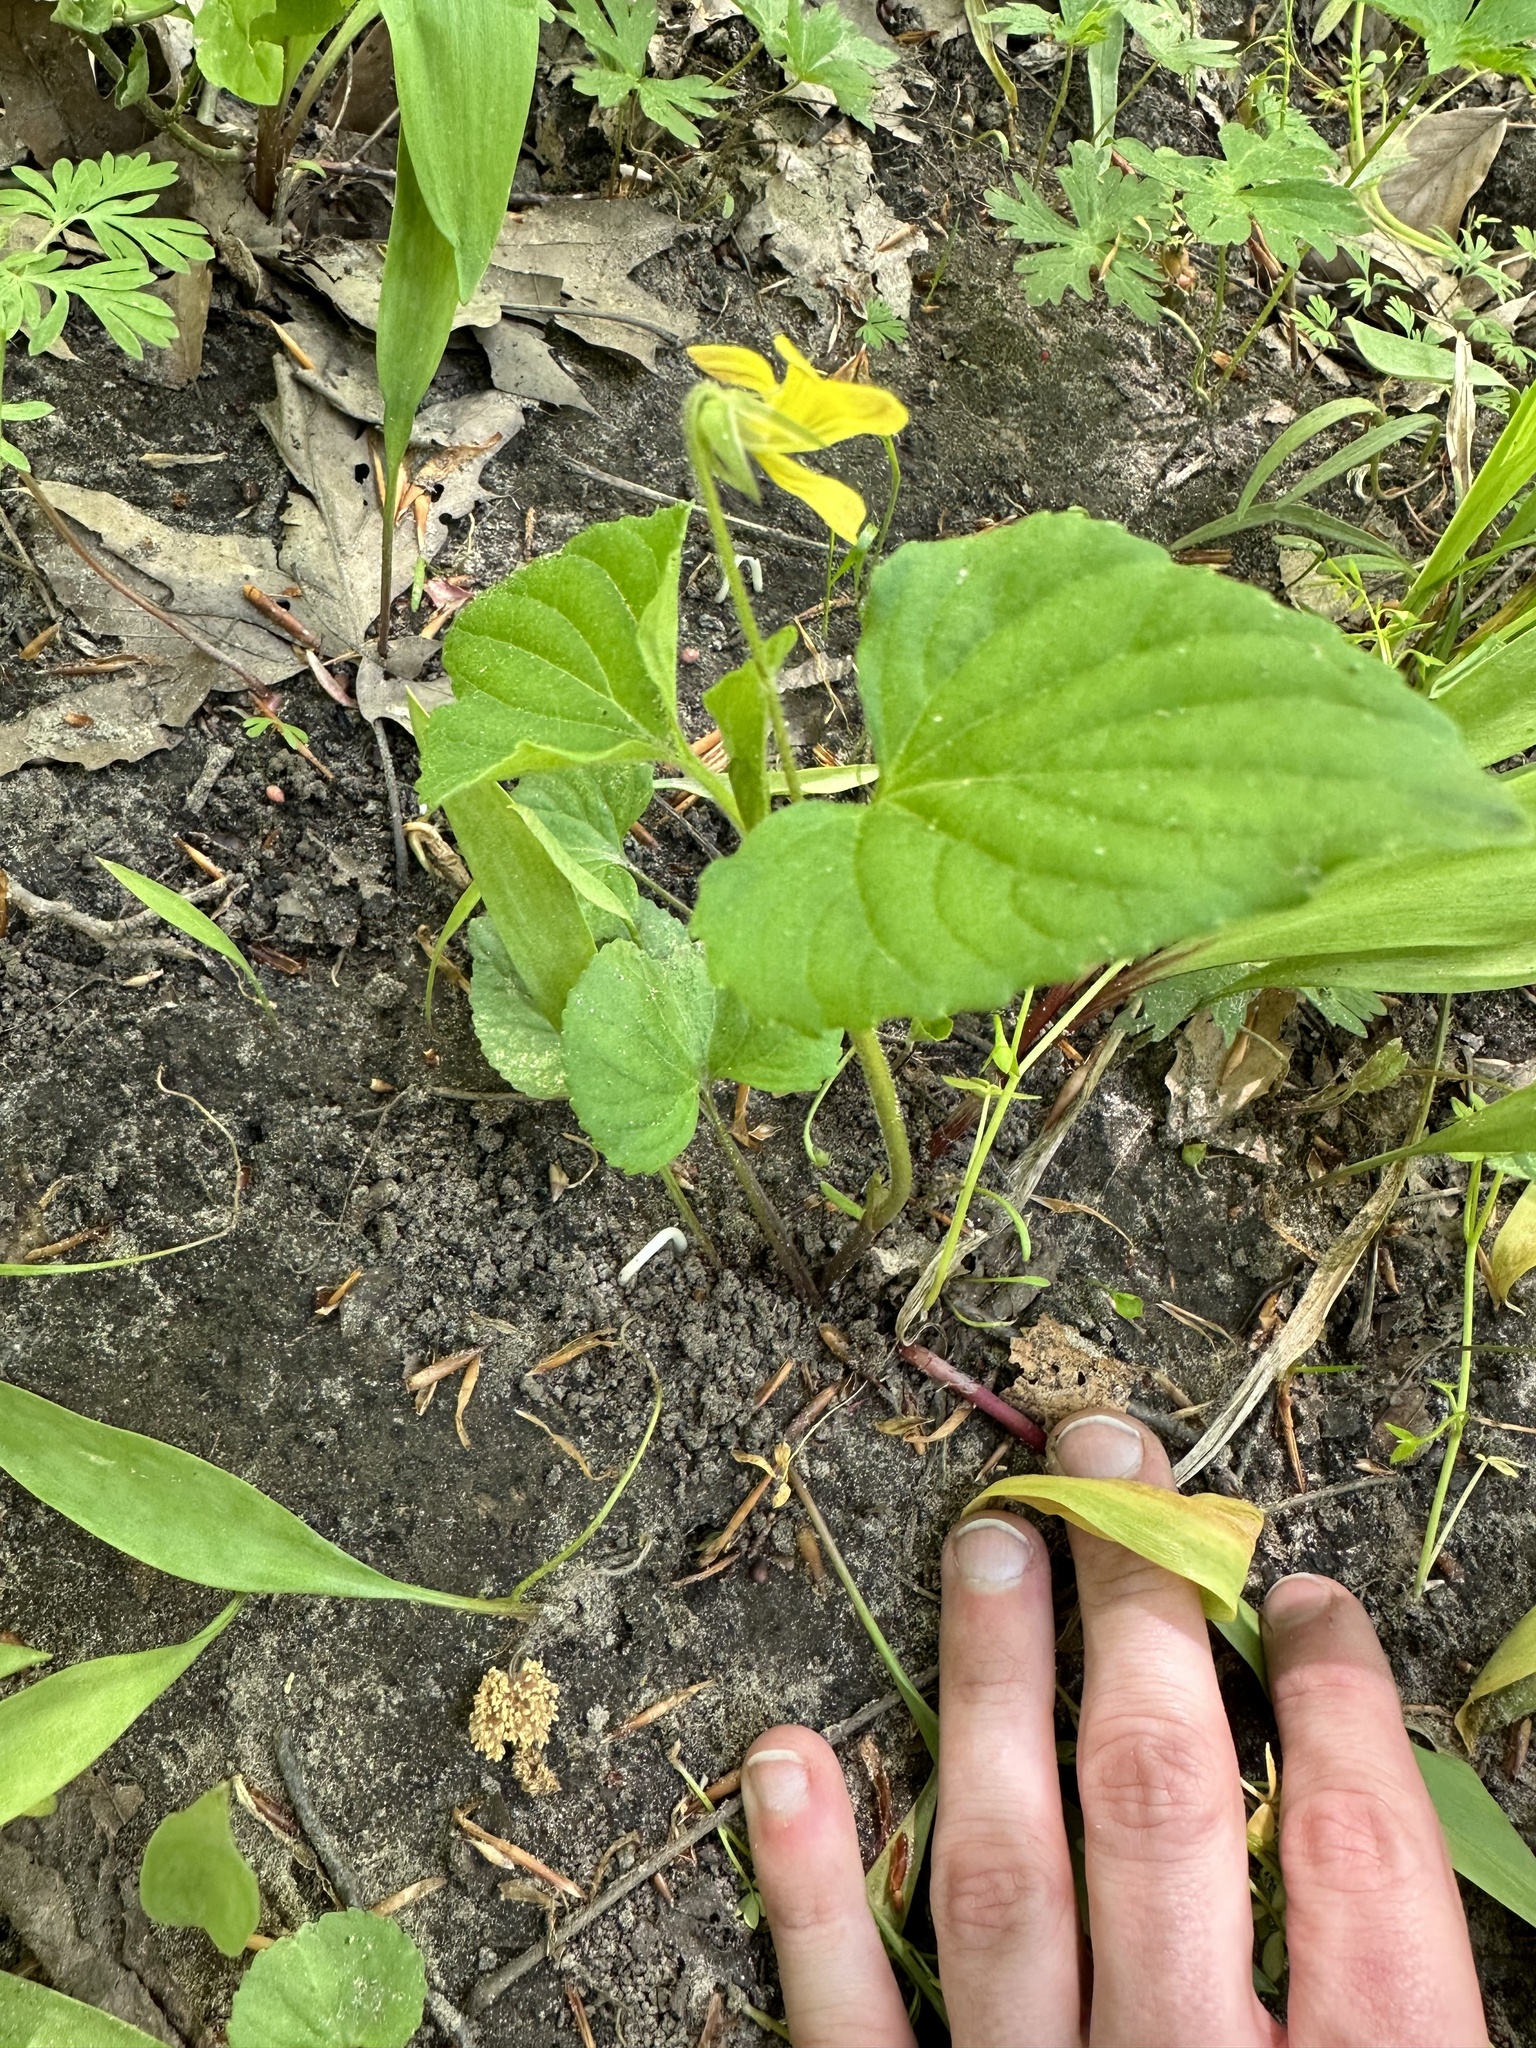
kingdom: Plantae
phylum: Tracheophyta
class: Magnoliopsida
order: Malpighiales
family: Violaceae
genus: Viola
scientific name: Viola eriocarpa
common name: Smooth yellow violet
